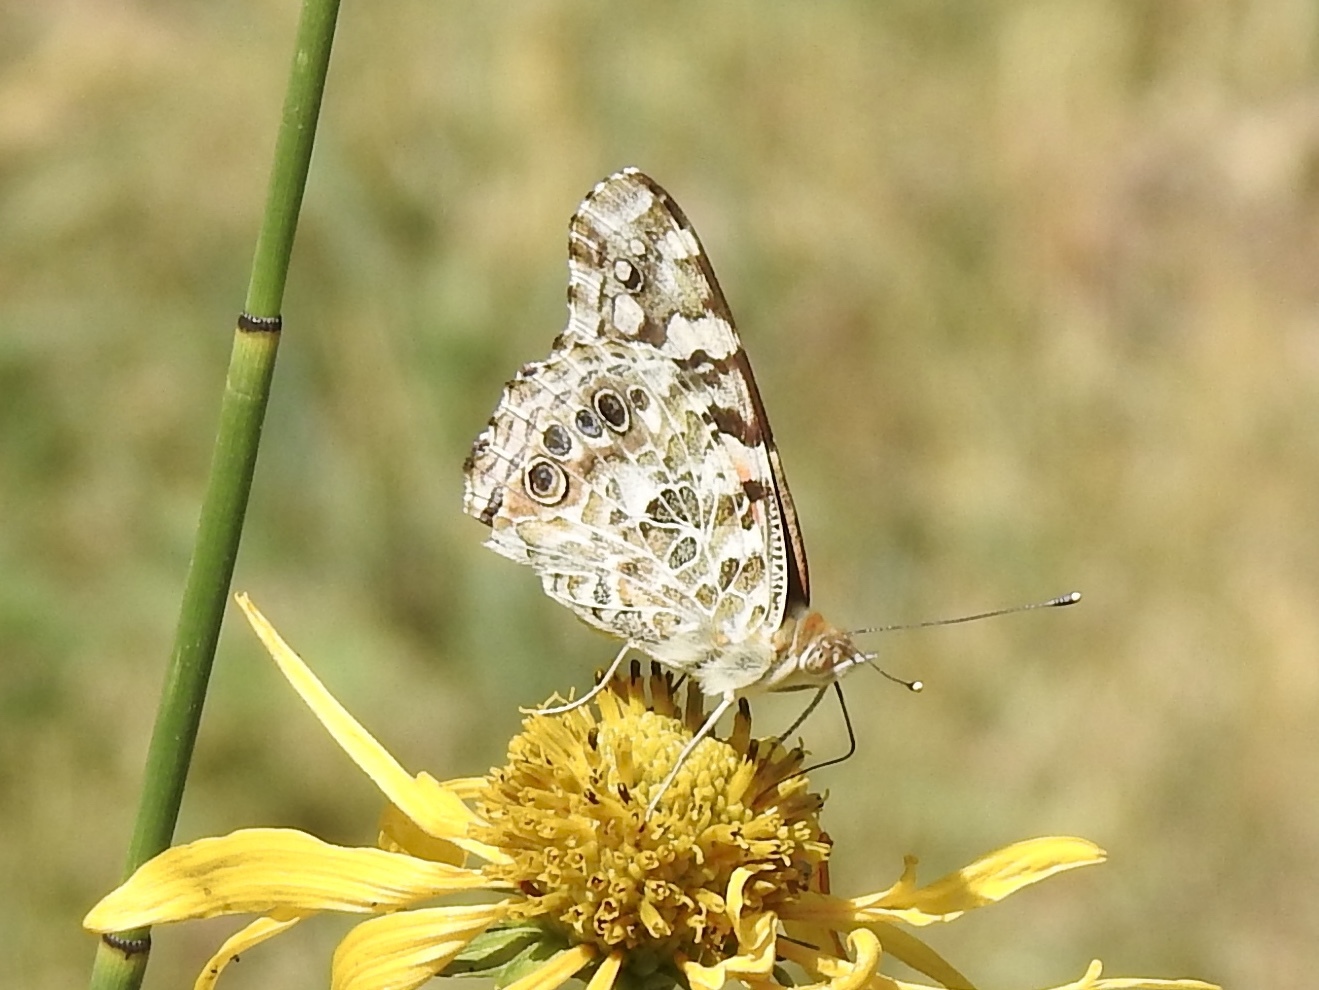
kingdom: Animalia
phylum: Arthropoda
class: Insecta
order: Lepidoptera
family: Nymphalidae
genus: Vanessa
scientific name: Vanessa cardui
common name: Painted lady
